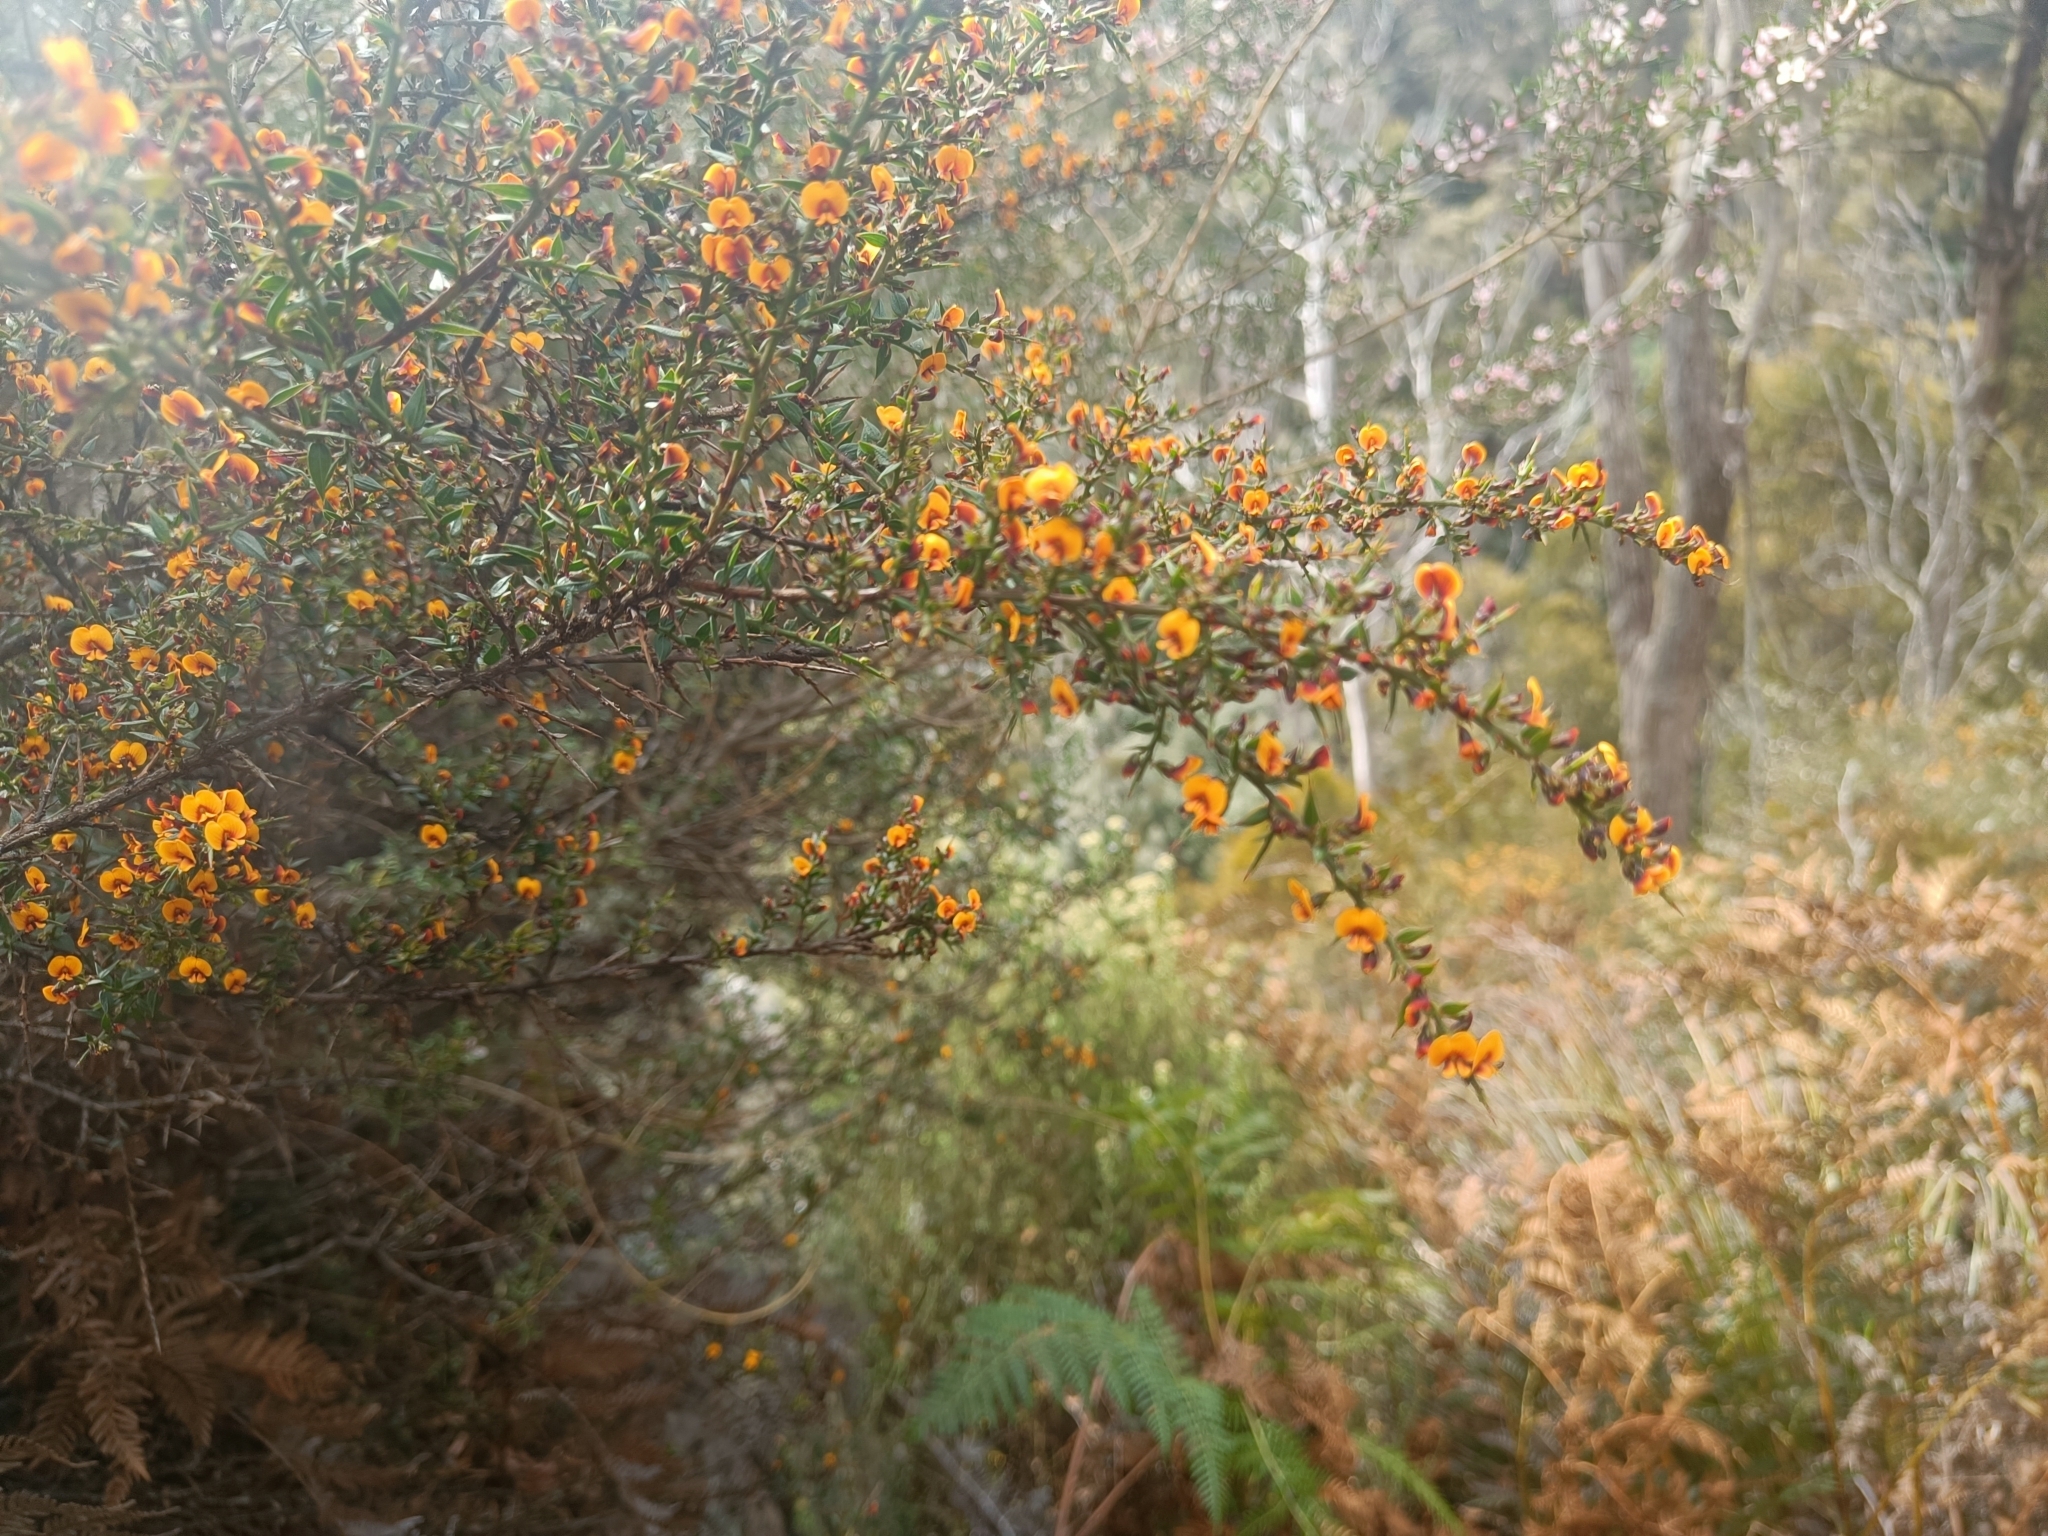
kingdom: Plantae
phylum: Tracheophyta
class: Magnoliopsida
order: Fabales
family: Fabaceae
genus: Daviesia
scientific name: Daviesia ulicifolia
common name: Gorse bitter-pea
